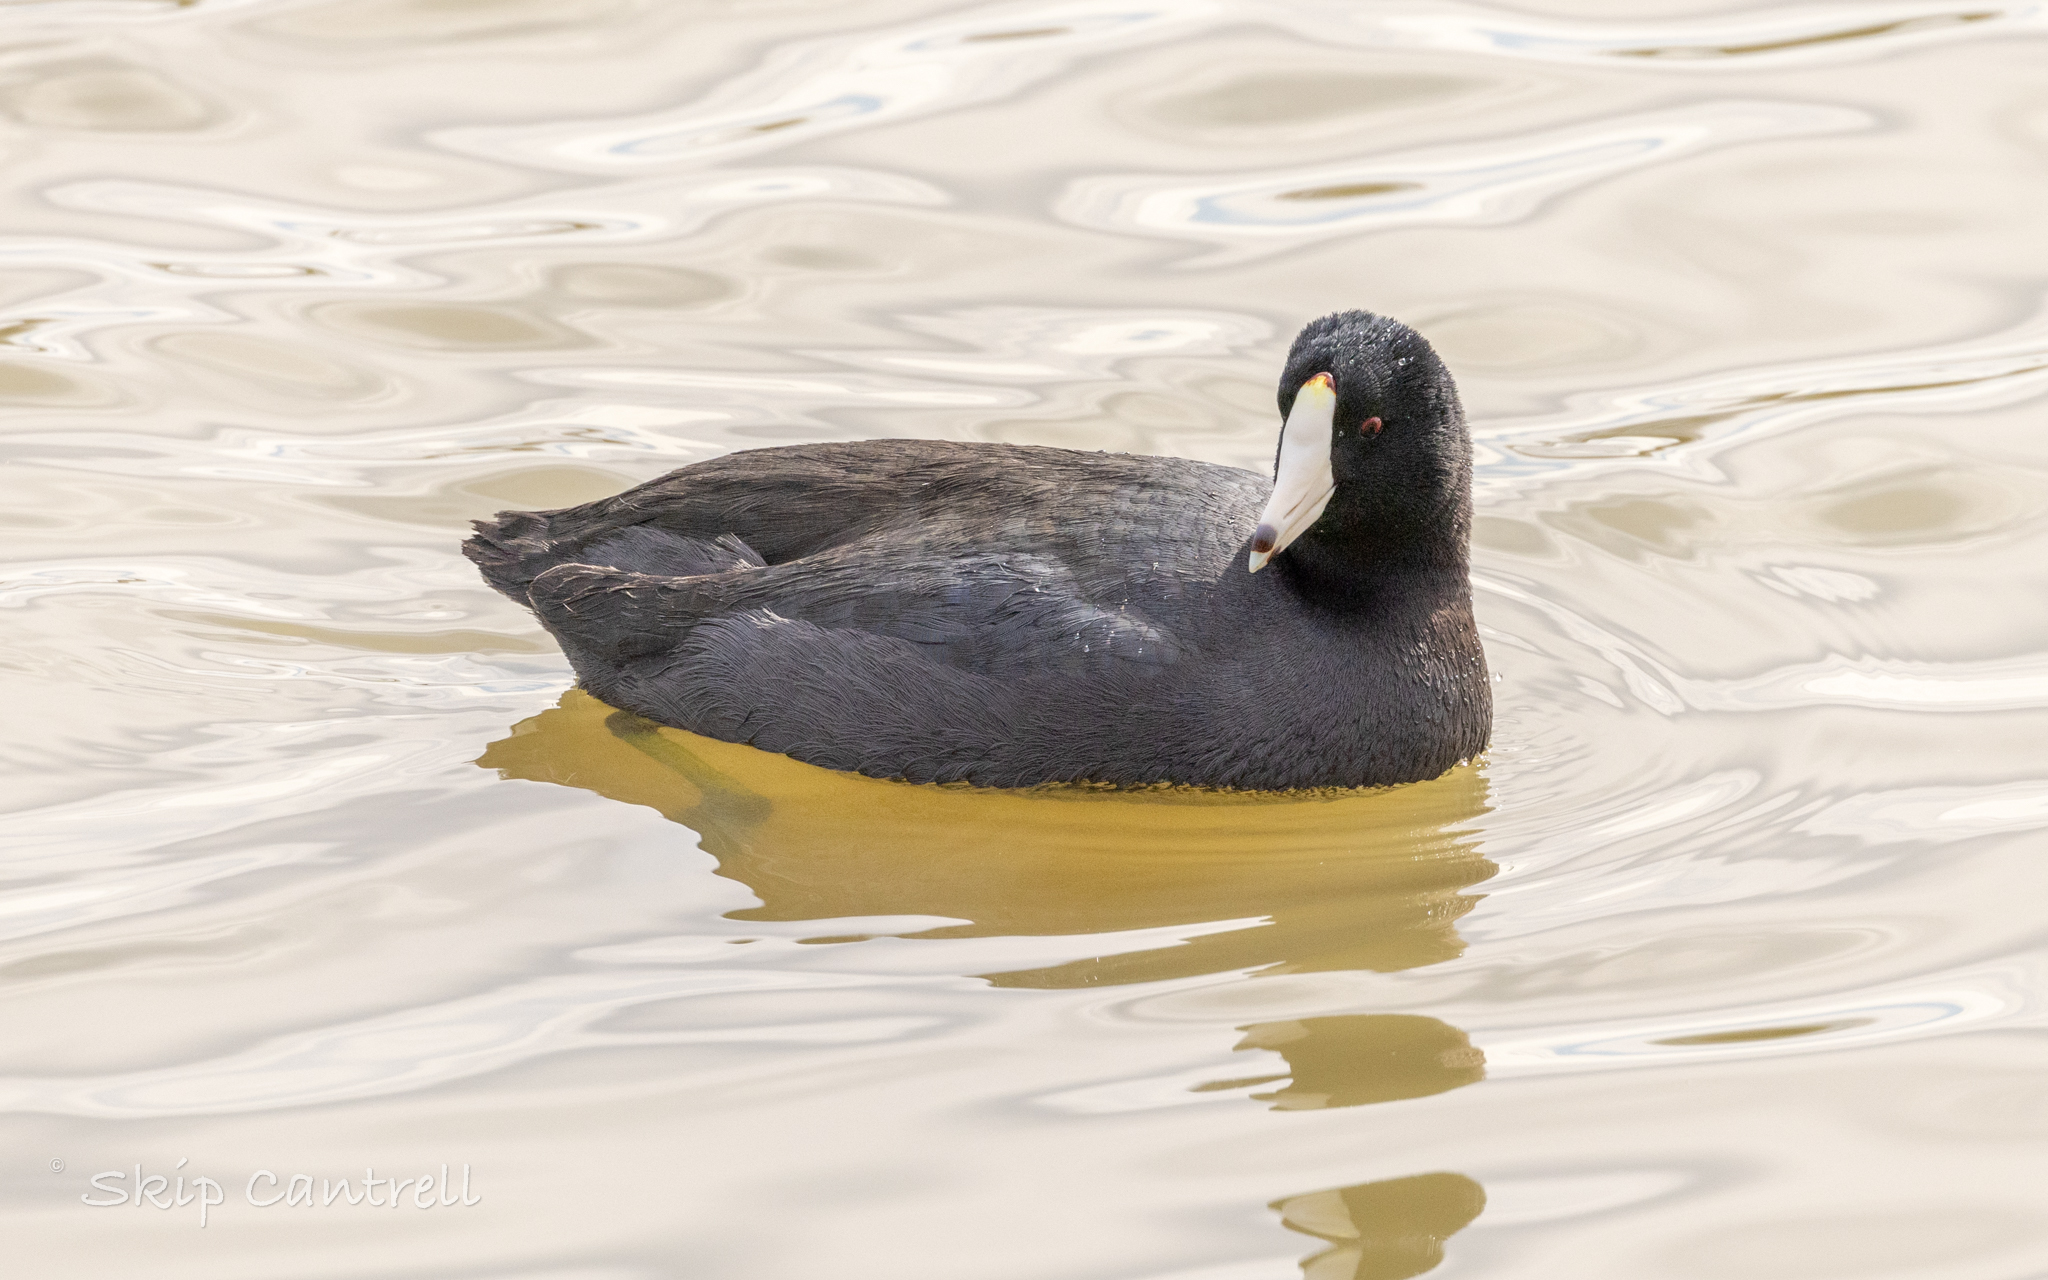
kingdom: Animalia
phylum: Chordata
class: Aves
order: Gruiformes
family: Rallidae
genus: Fulica
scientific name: Fulica americana
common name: American coot
